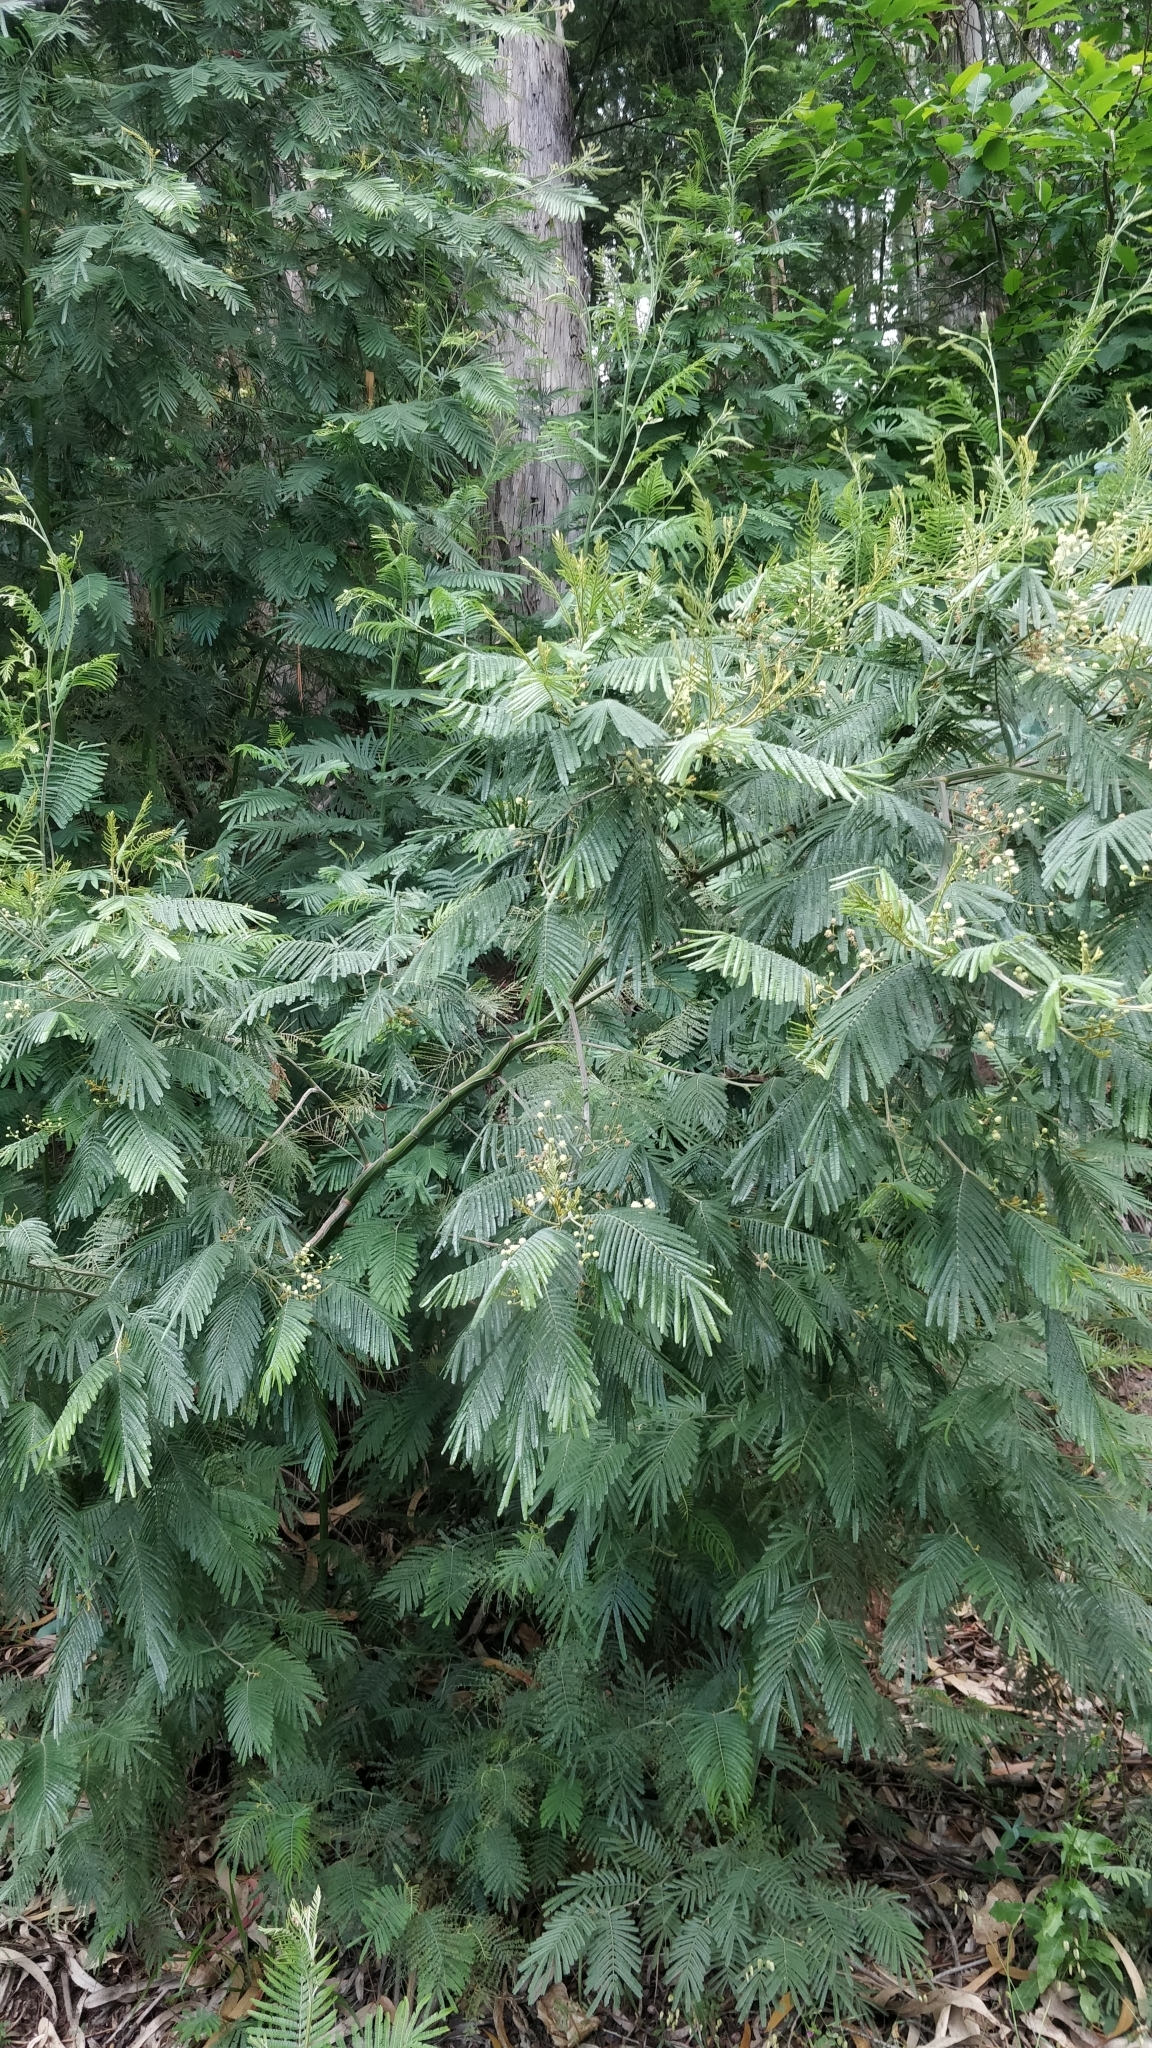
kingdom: Plantae
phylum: Tracheophyta
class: Magnoliopsida
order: Fabales
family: Fabaceae
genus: Acacia
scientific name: Acacia mearnsii
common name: Black wattle
